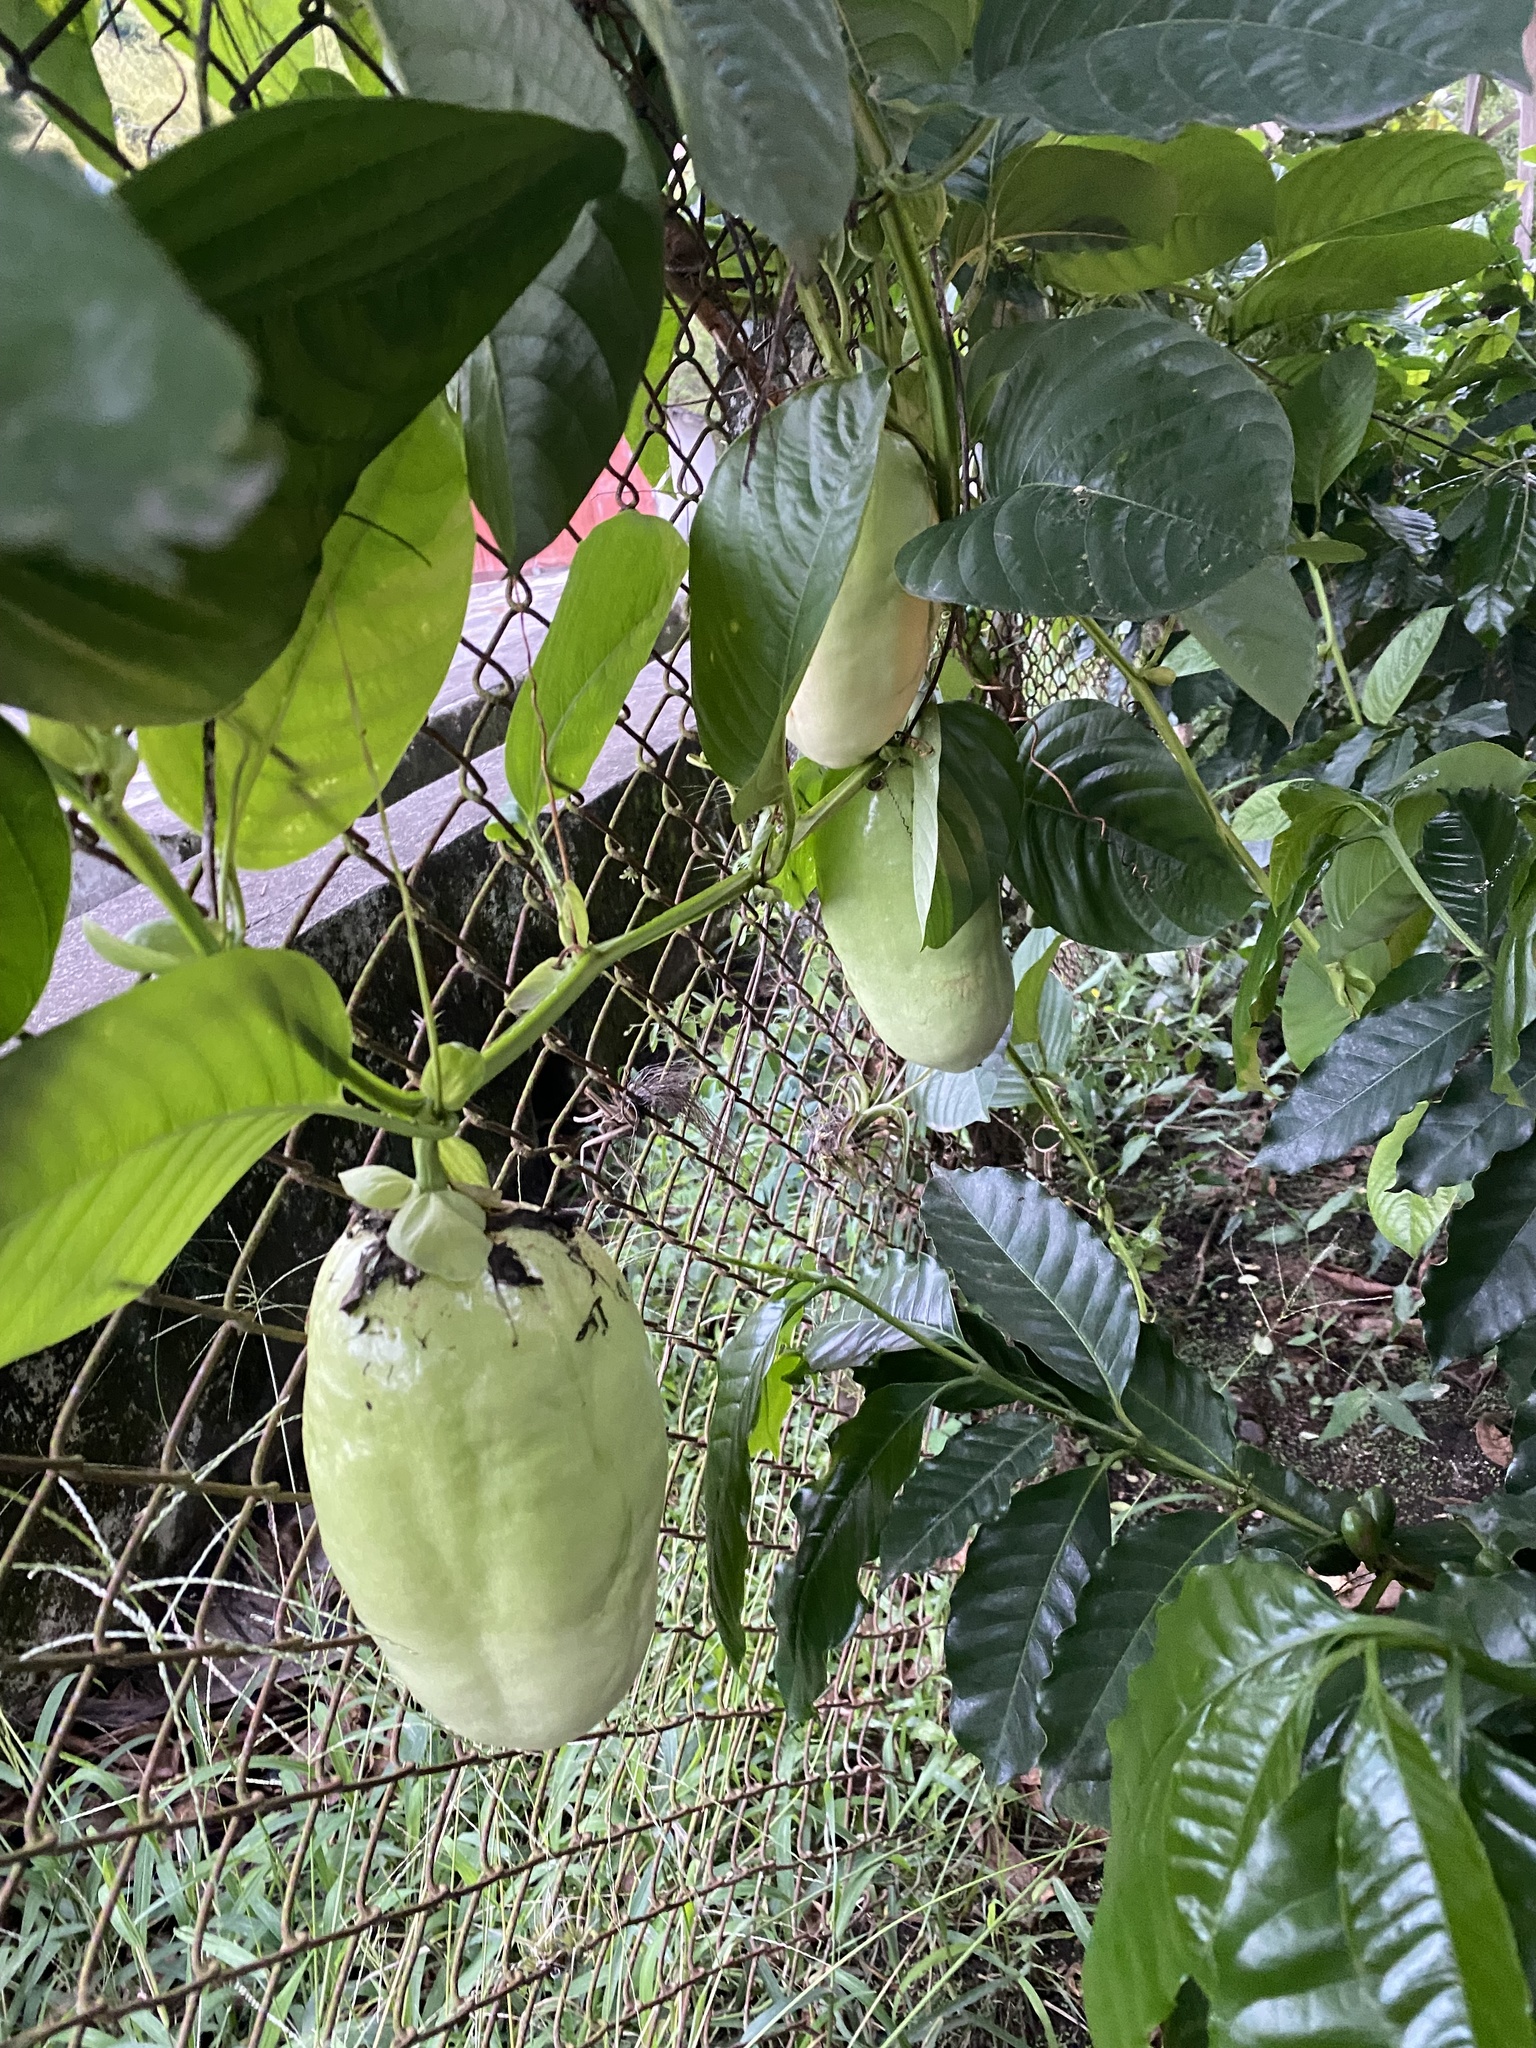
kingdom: Plantae
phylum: Tracheophyta
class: Magnoliopsida
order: Malpighiales
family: Passifloraceae
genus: Passiflora
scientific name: Passiflora quadrangularis
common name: Giant granadilla
